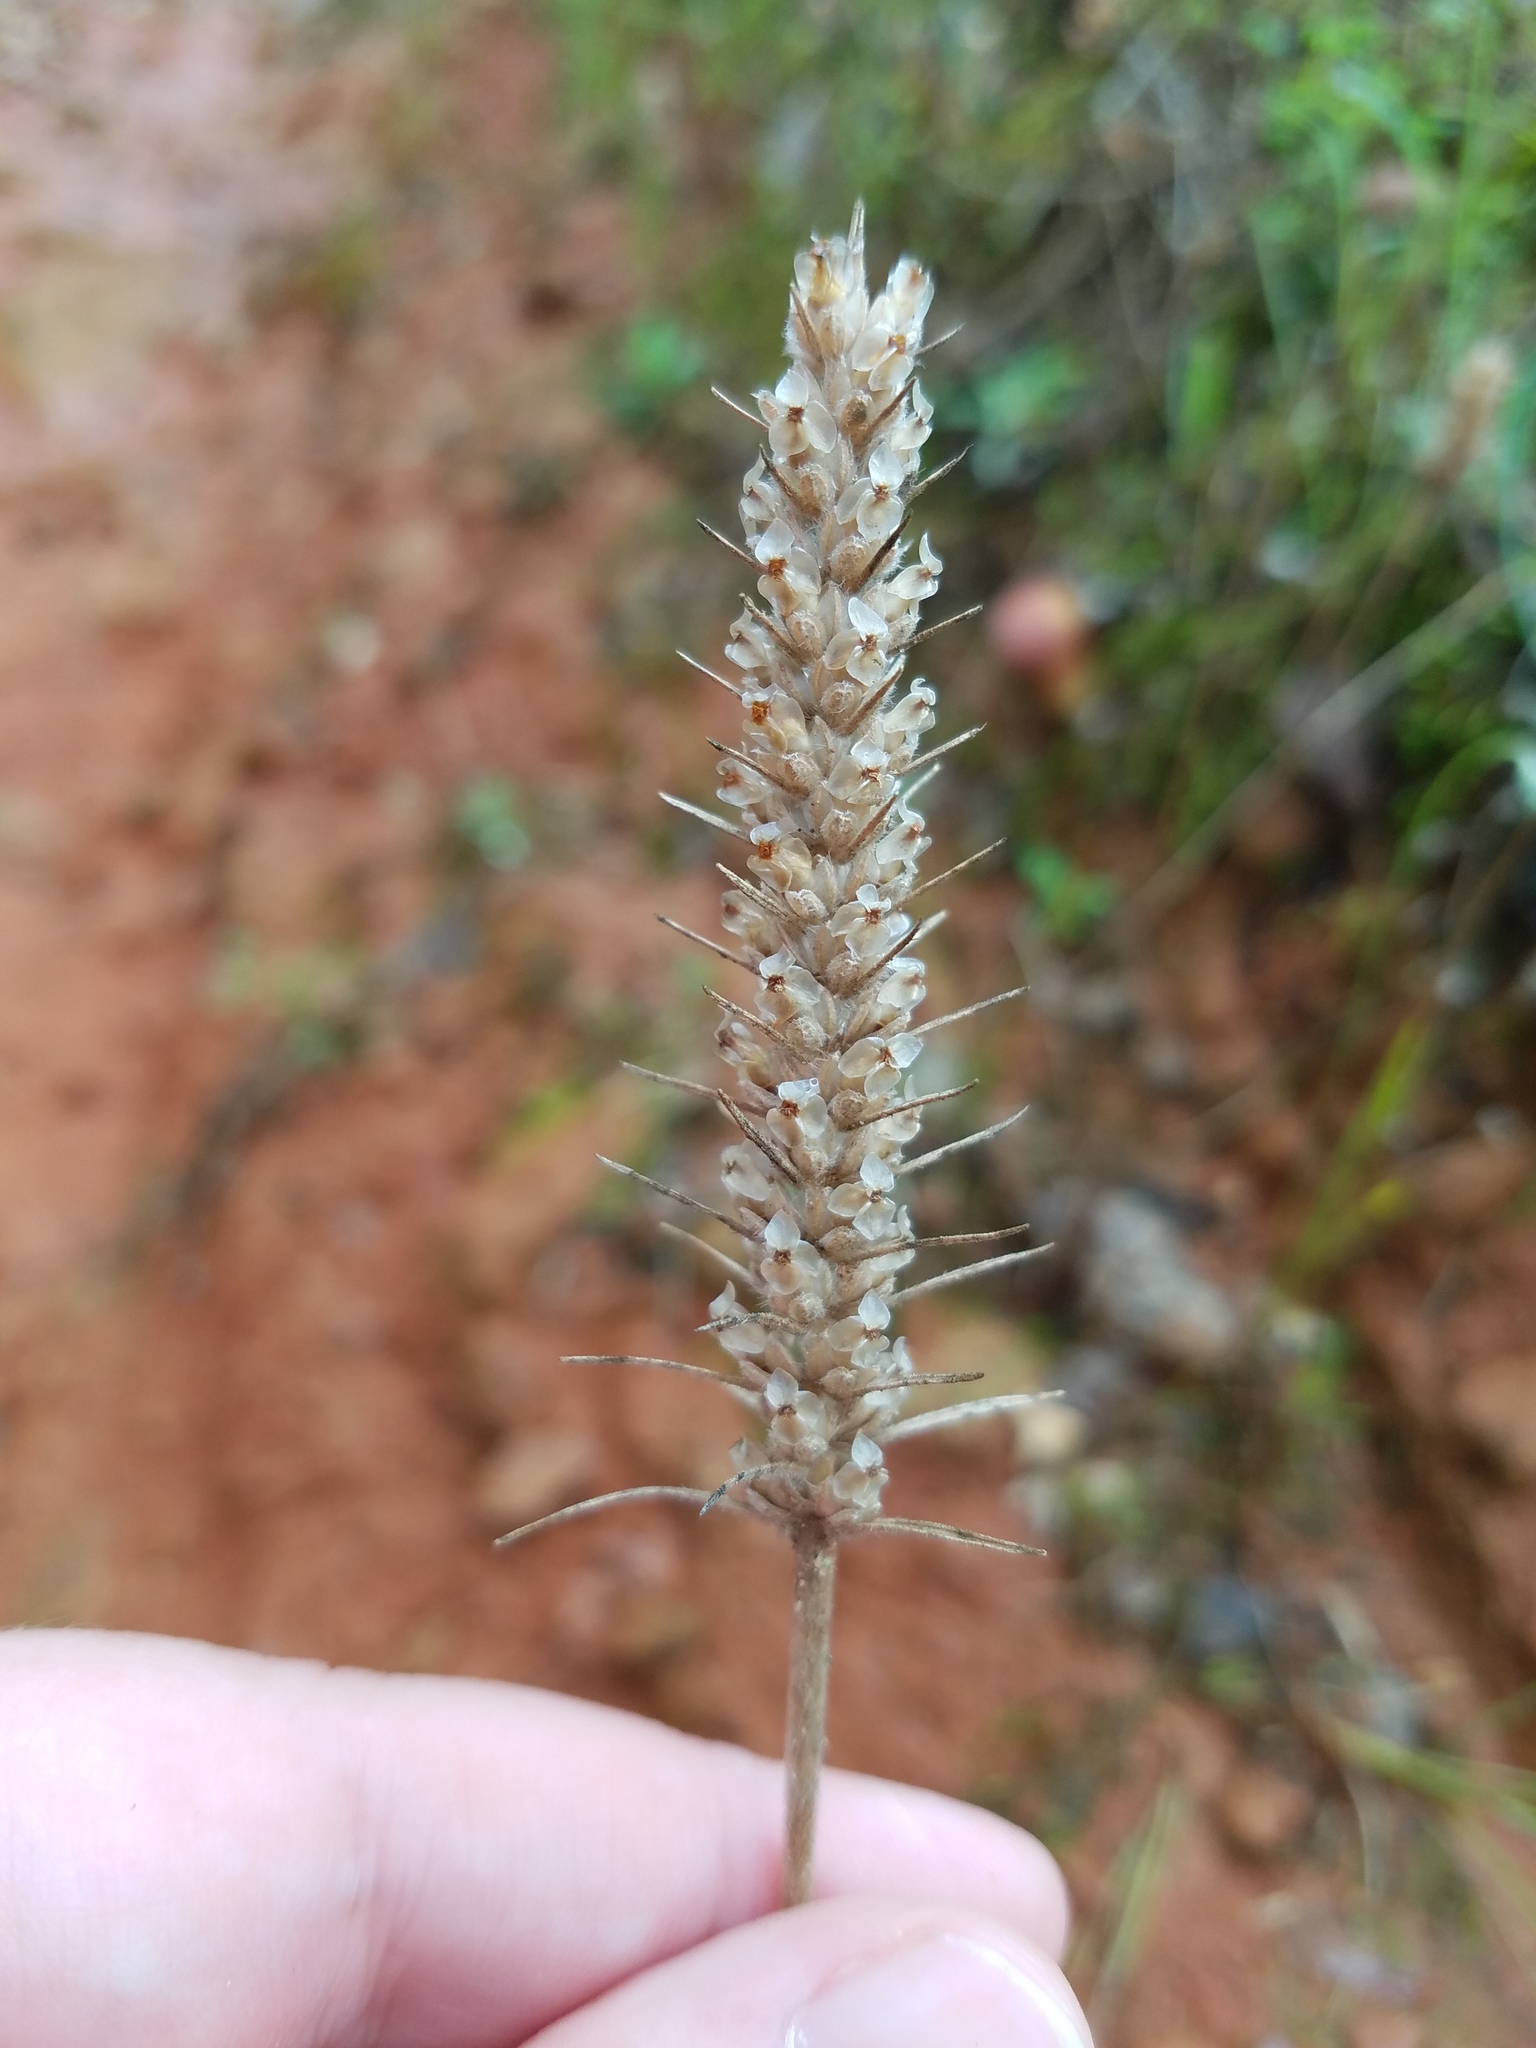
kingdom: Plantae
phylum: Tracheophyta
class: Magnoliopsida
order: Lamiales
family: Plantaginaceae
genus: Plantago
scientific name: Plantago aristata
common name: Bracted plantain
